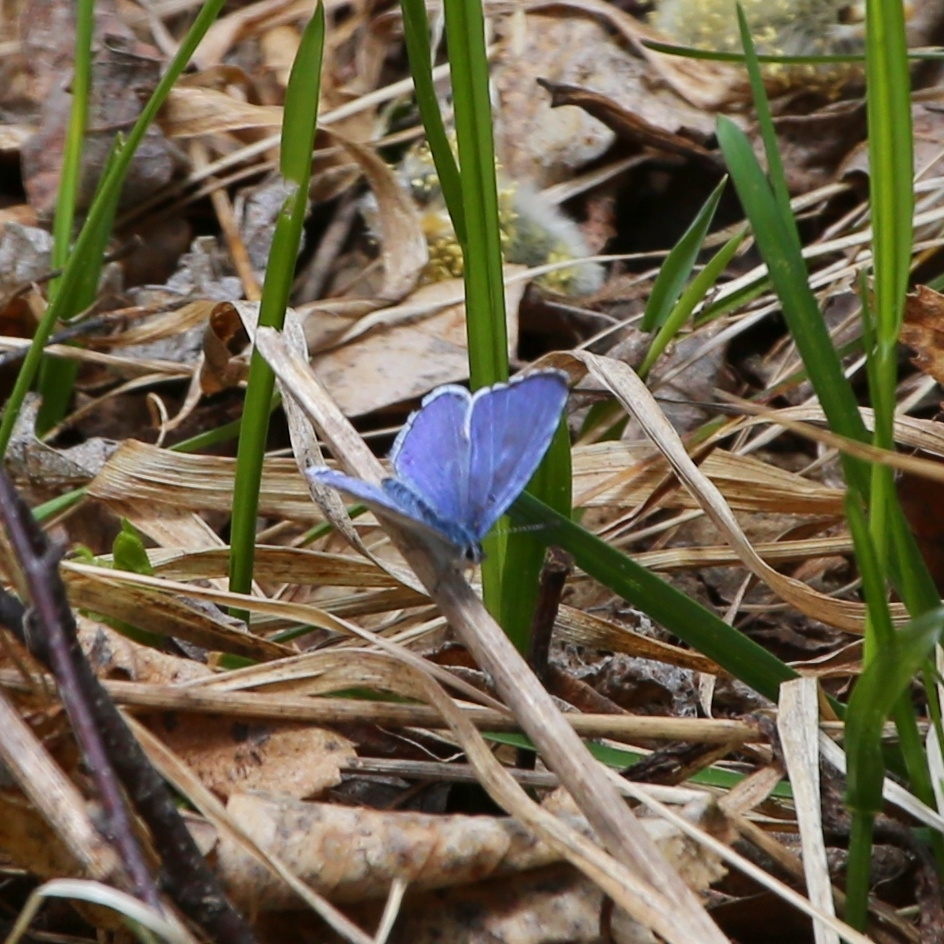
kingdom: Animalia
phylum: Arthropoda
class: Insecta
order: Lepidoptera
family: Lycaenidae
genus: Celastrina
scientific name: Celastrina argiolus
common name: Holly blue
